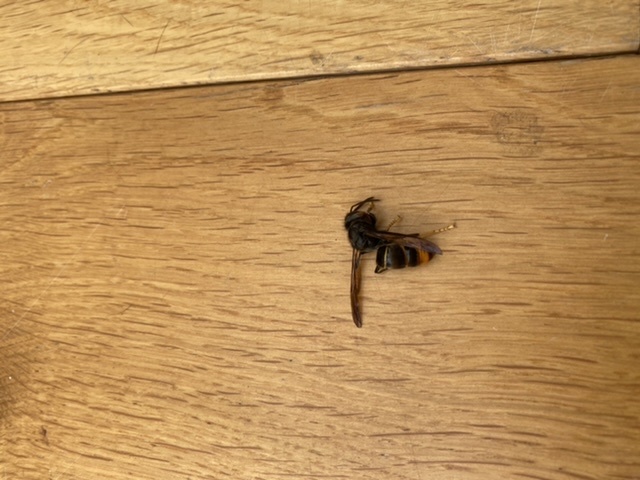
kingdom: Animalia
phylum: Arthropoda
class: Insecta
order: Hymenoptera
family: Vespidae
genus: Vespa
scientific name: Vespa velutina
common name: Asian hornet
